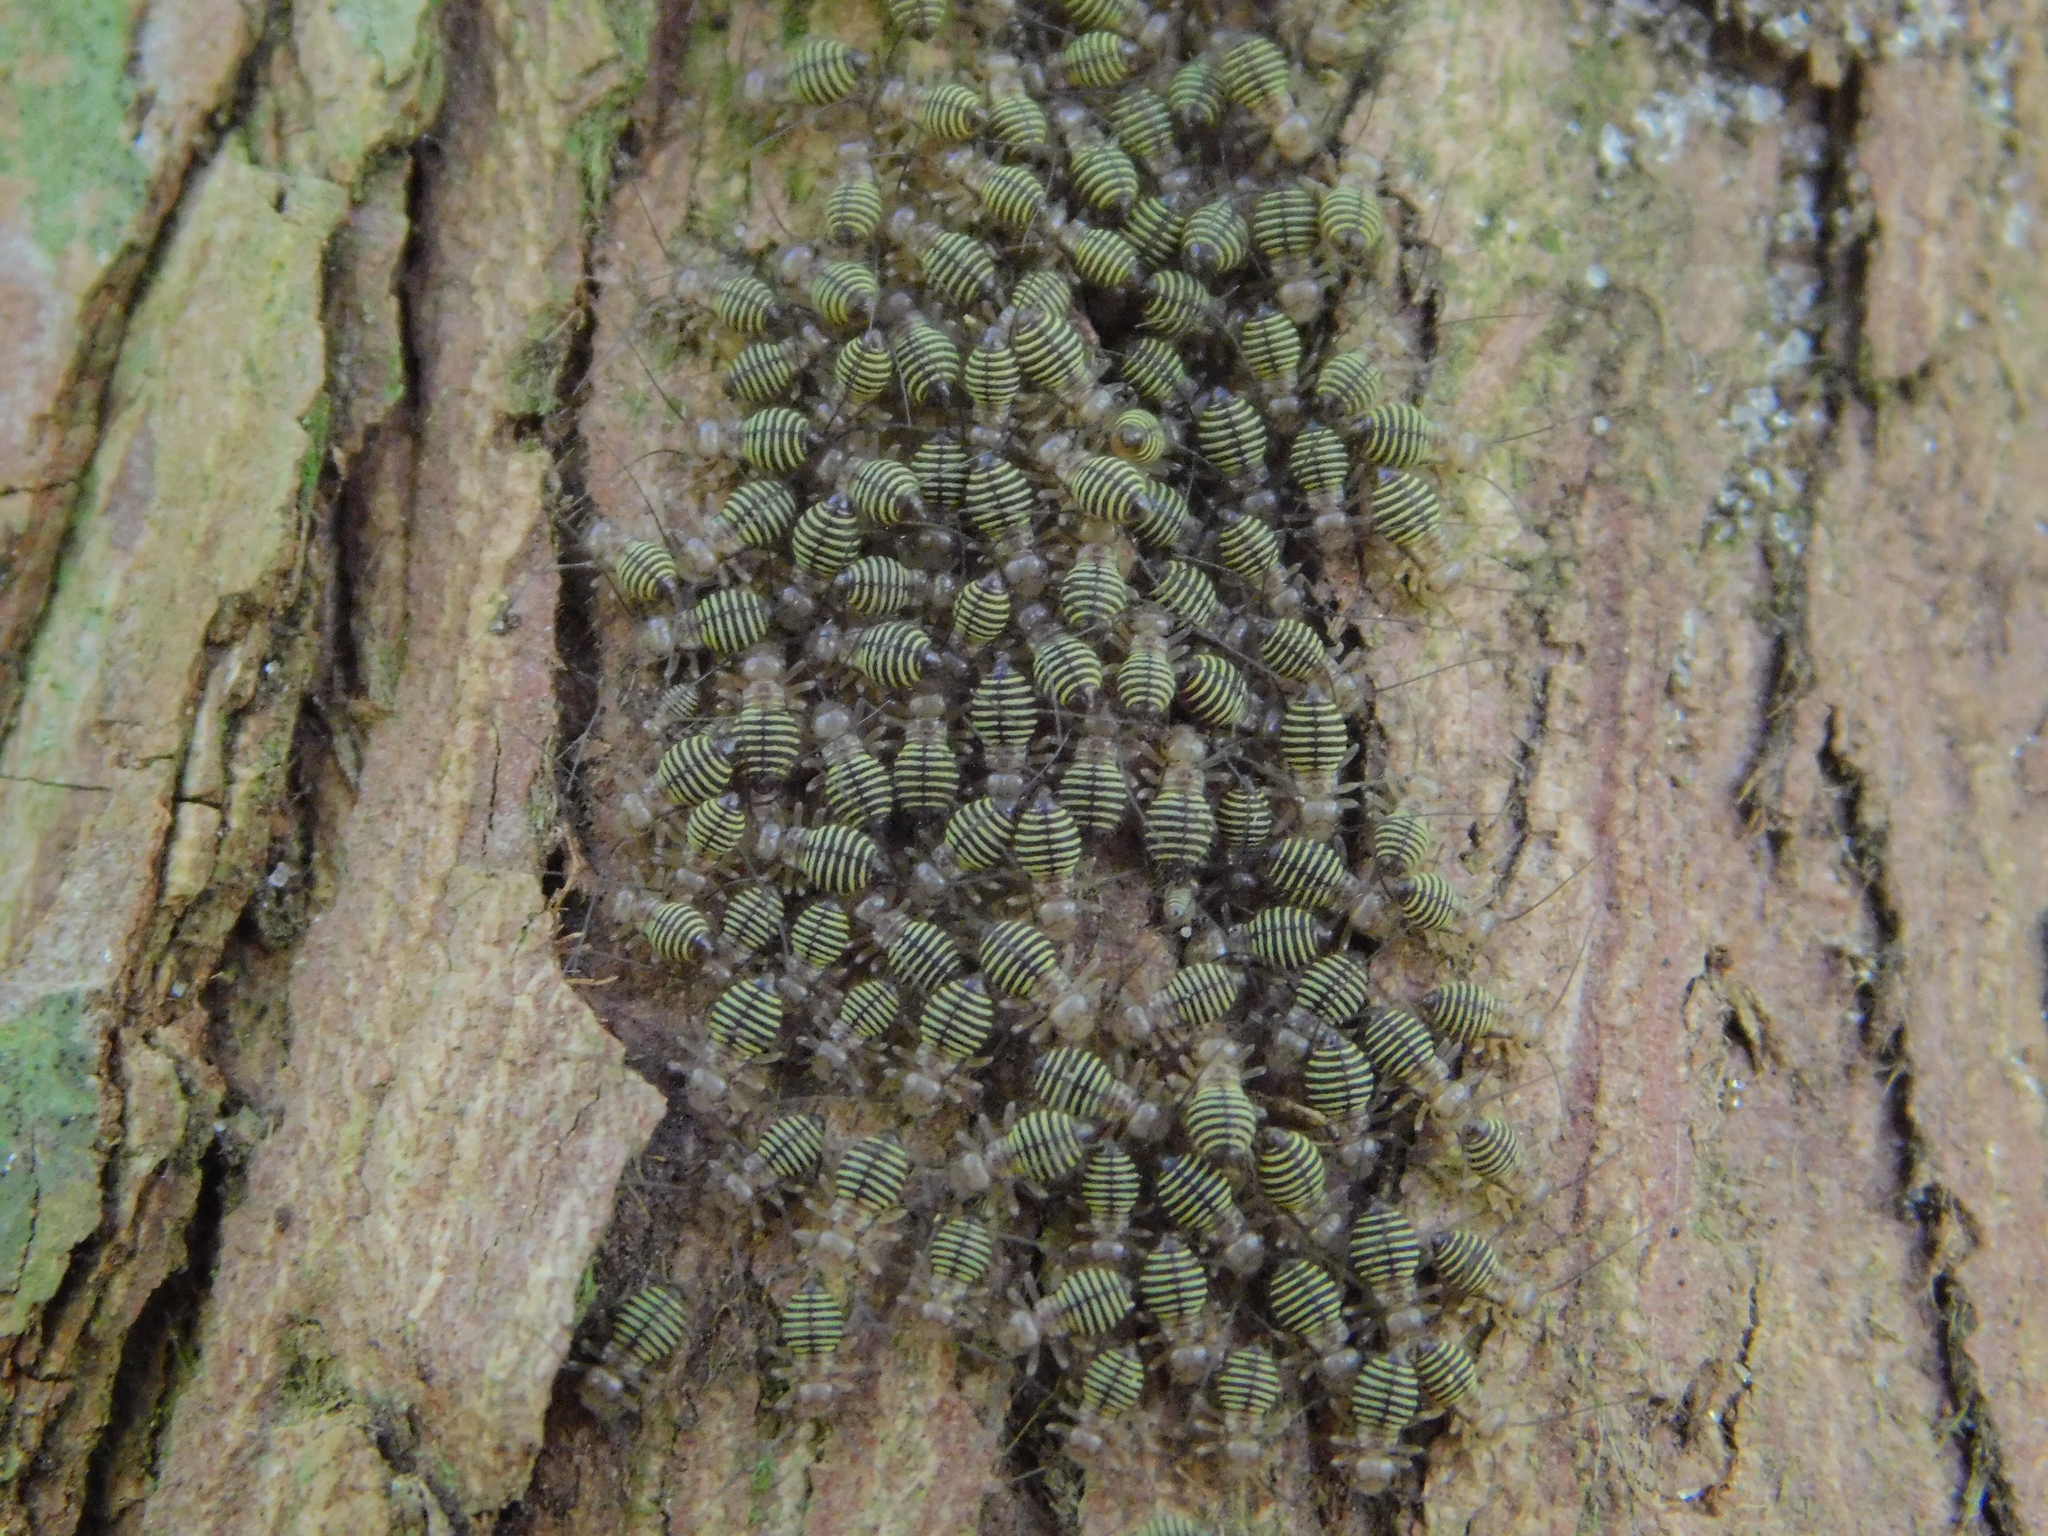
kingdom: Animalia
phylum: Arthropoda
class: Insecta
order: Psocodea
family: Psocidae
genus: Cerastipsocus
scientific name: Cerastipsocus venosus
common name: Tree cattle
